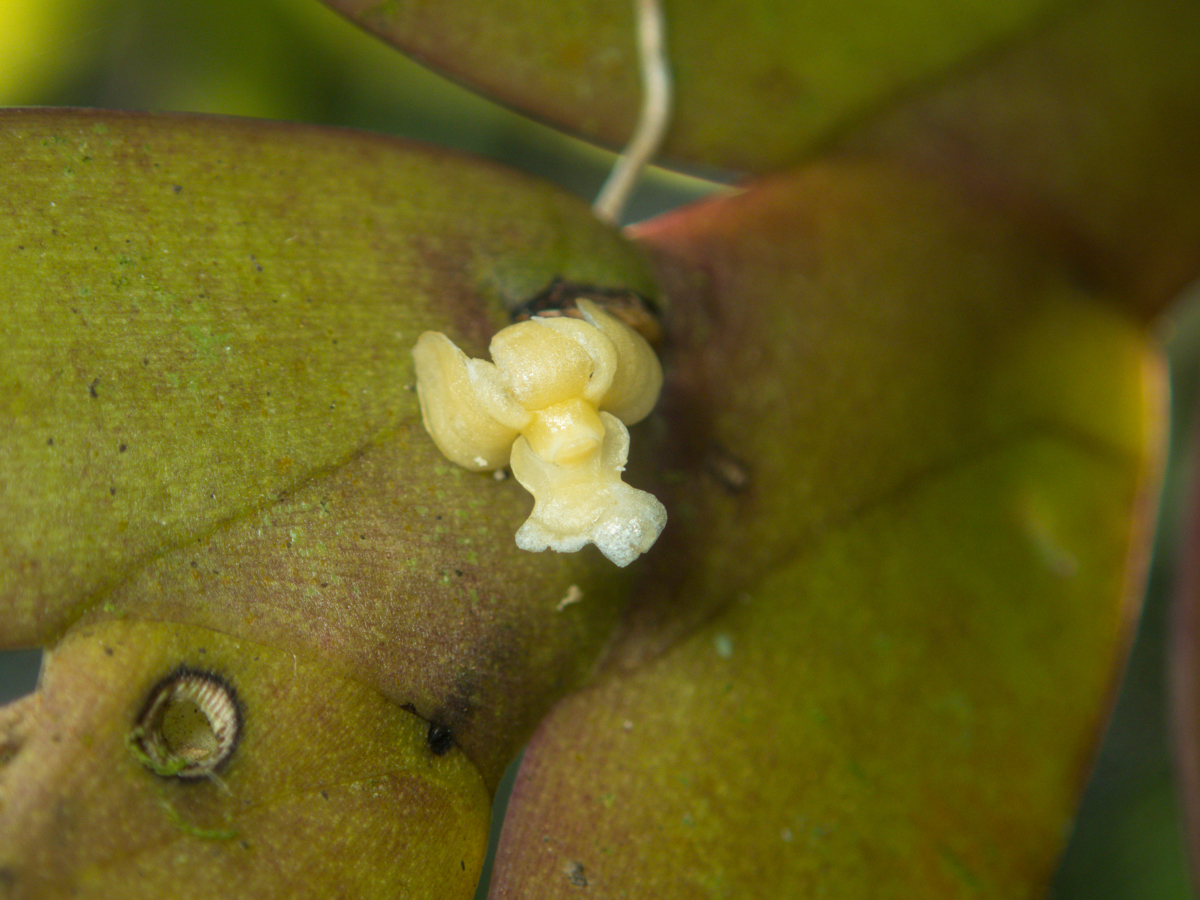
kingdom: Plantae
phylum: Tracheophyta
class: Liliopsida
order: Asparagales
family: Orchidaceae
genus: Dendrobium
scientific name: Dendrobium aloifolium
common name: Aloe-like dendrobium
